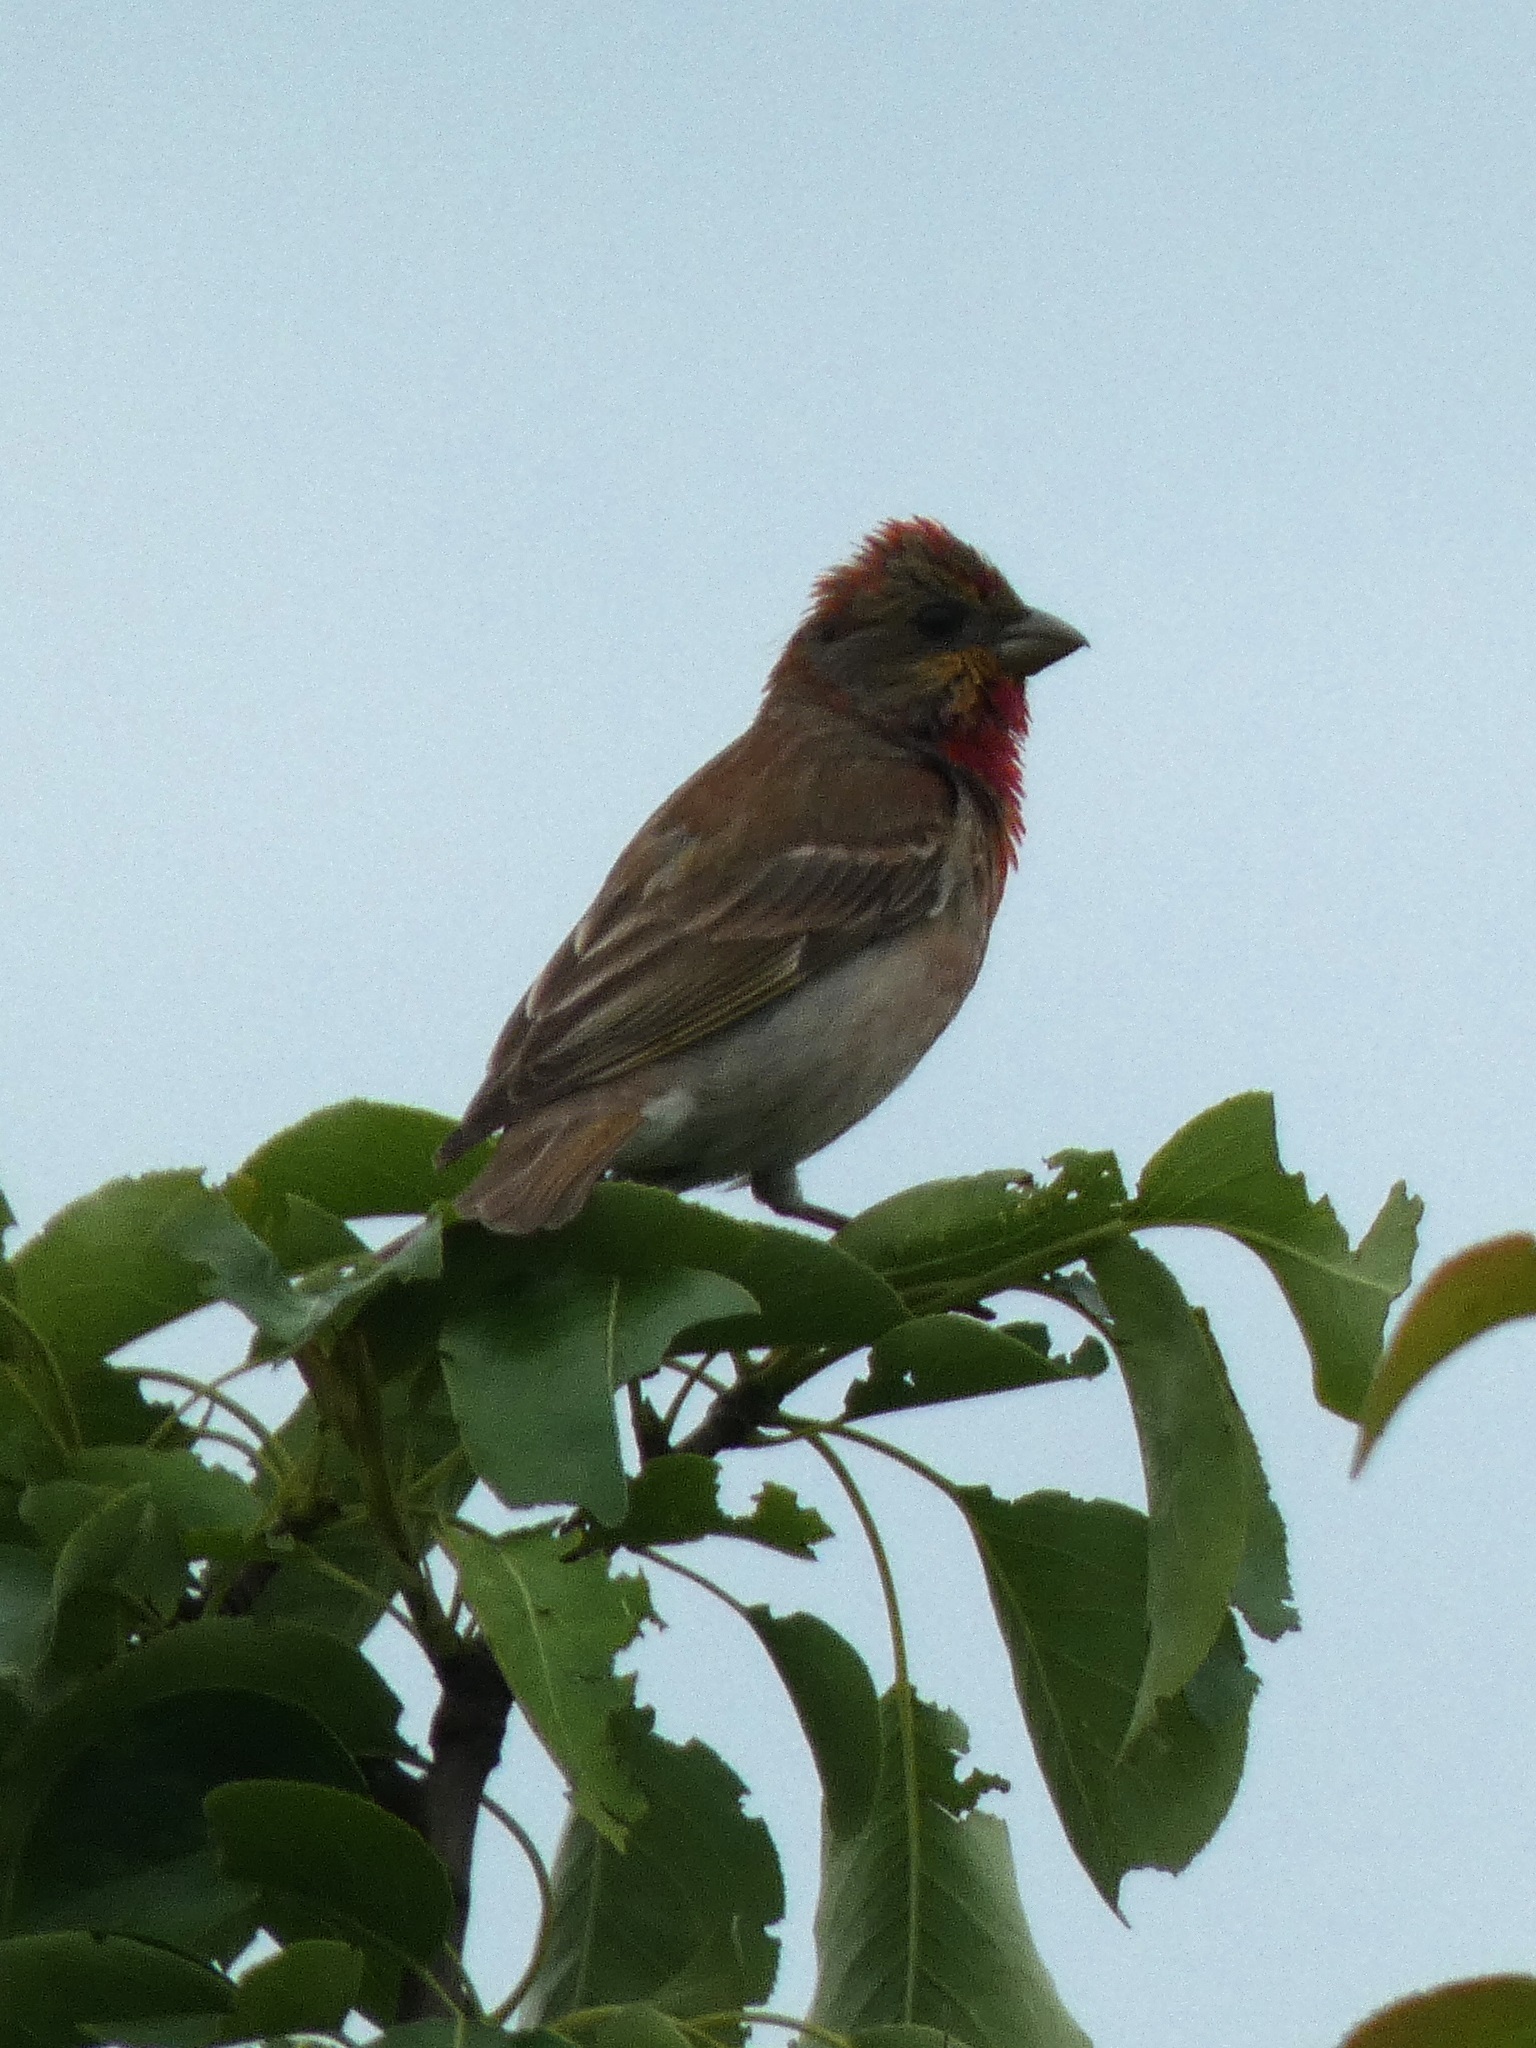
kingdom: Animalia
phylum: Chordata
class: Aves
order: Passeriformes
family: Fringillidae
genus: Carpodacus
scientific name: Carpodacus erythrinus
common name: Common rosefinch
